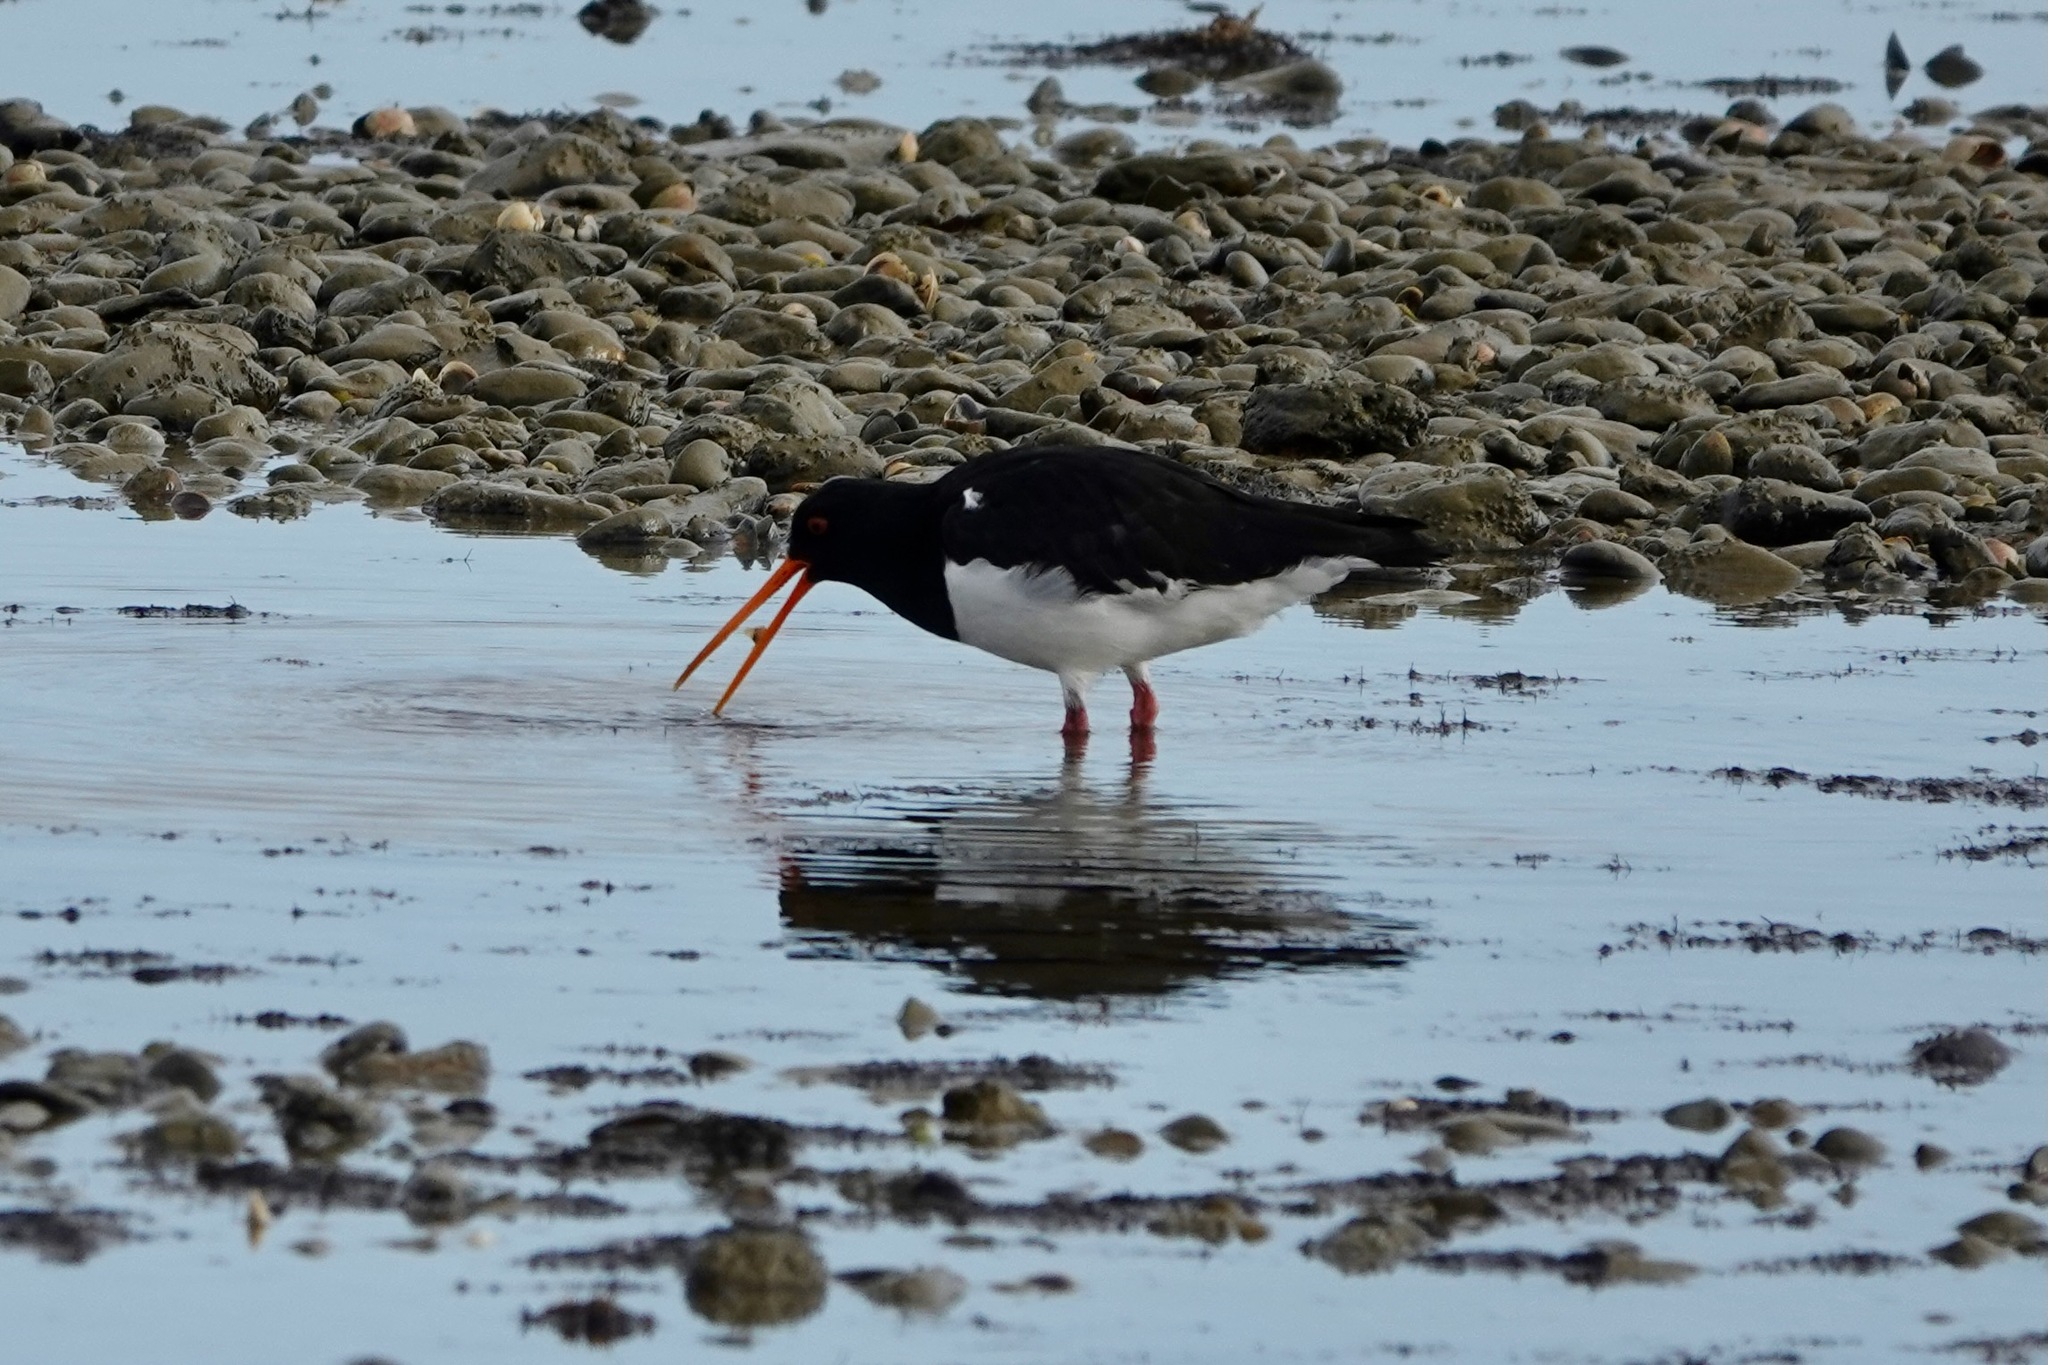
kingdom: Animalia
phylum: Chordata
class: Aves
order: Charadriiformes
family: Haematopodidae
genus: Haematopus
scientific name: Haematopus finschi
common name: South island oystercatcher
